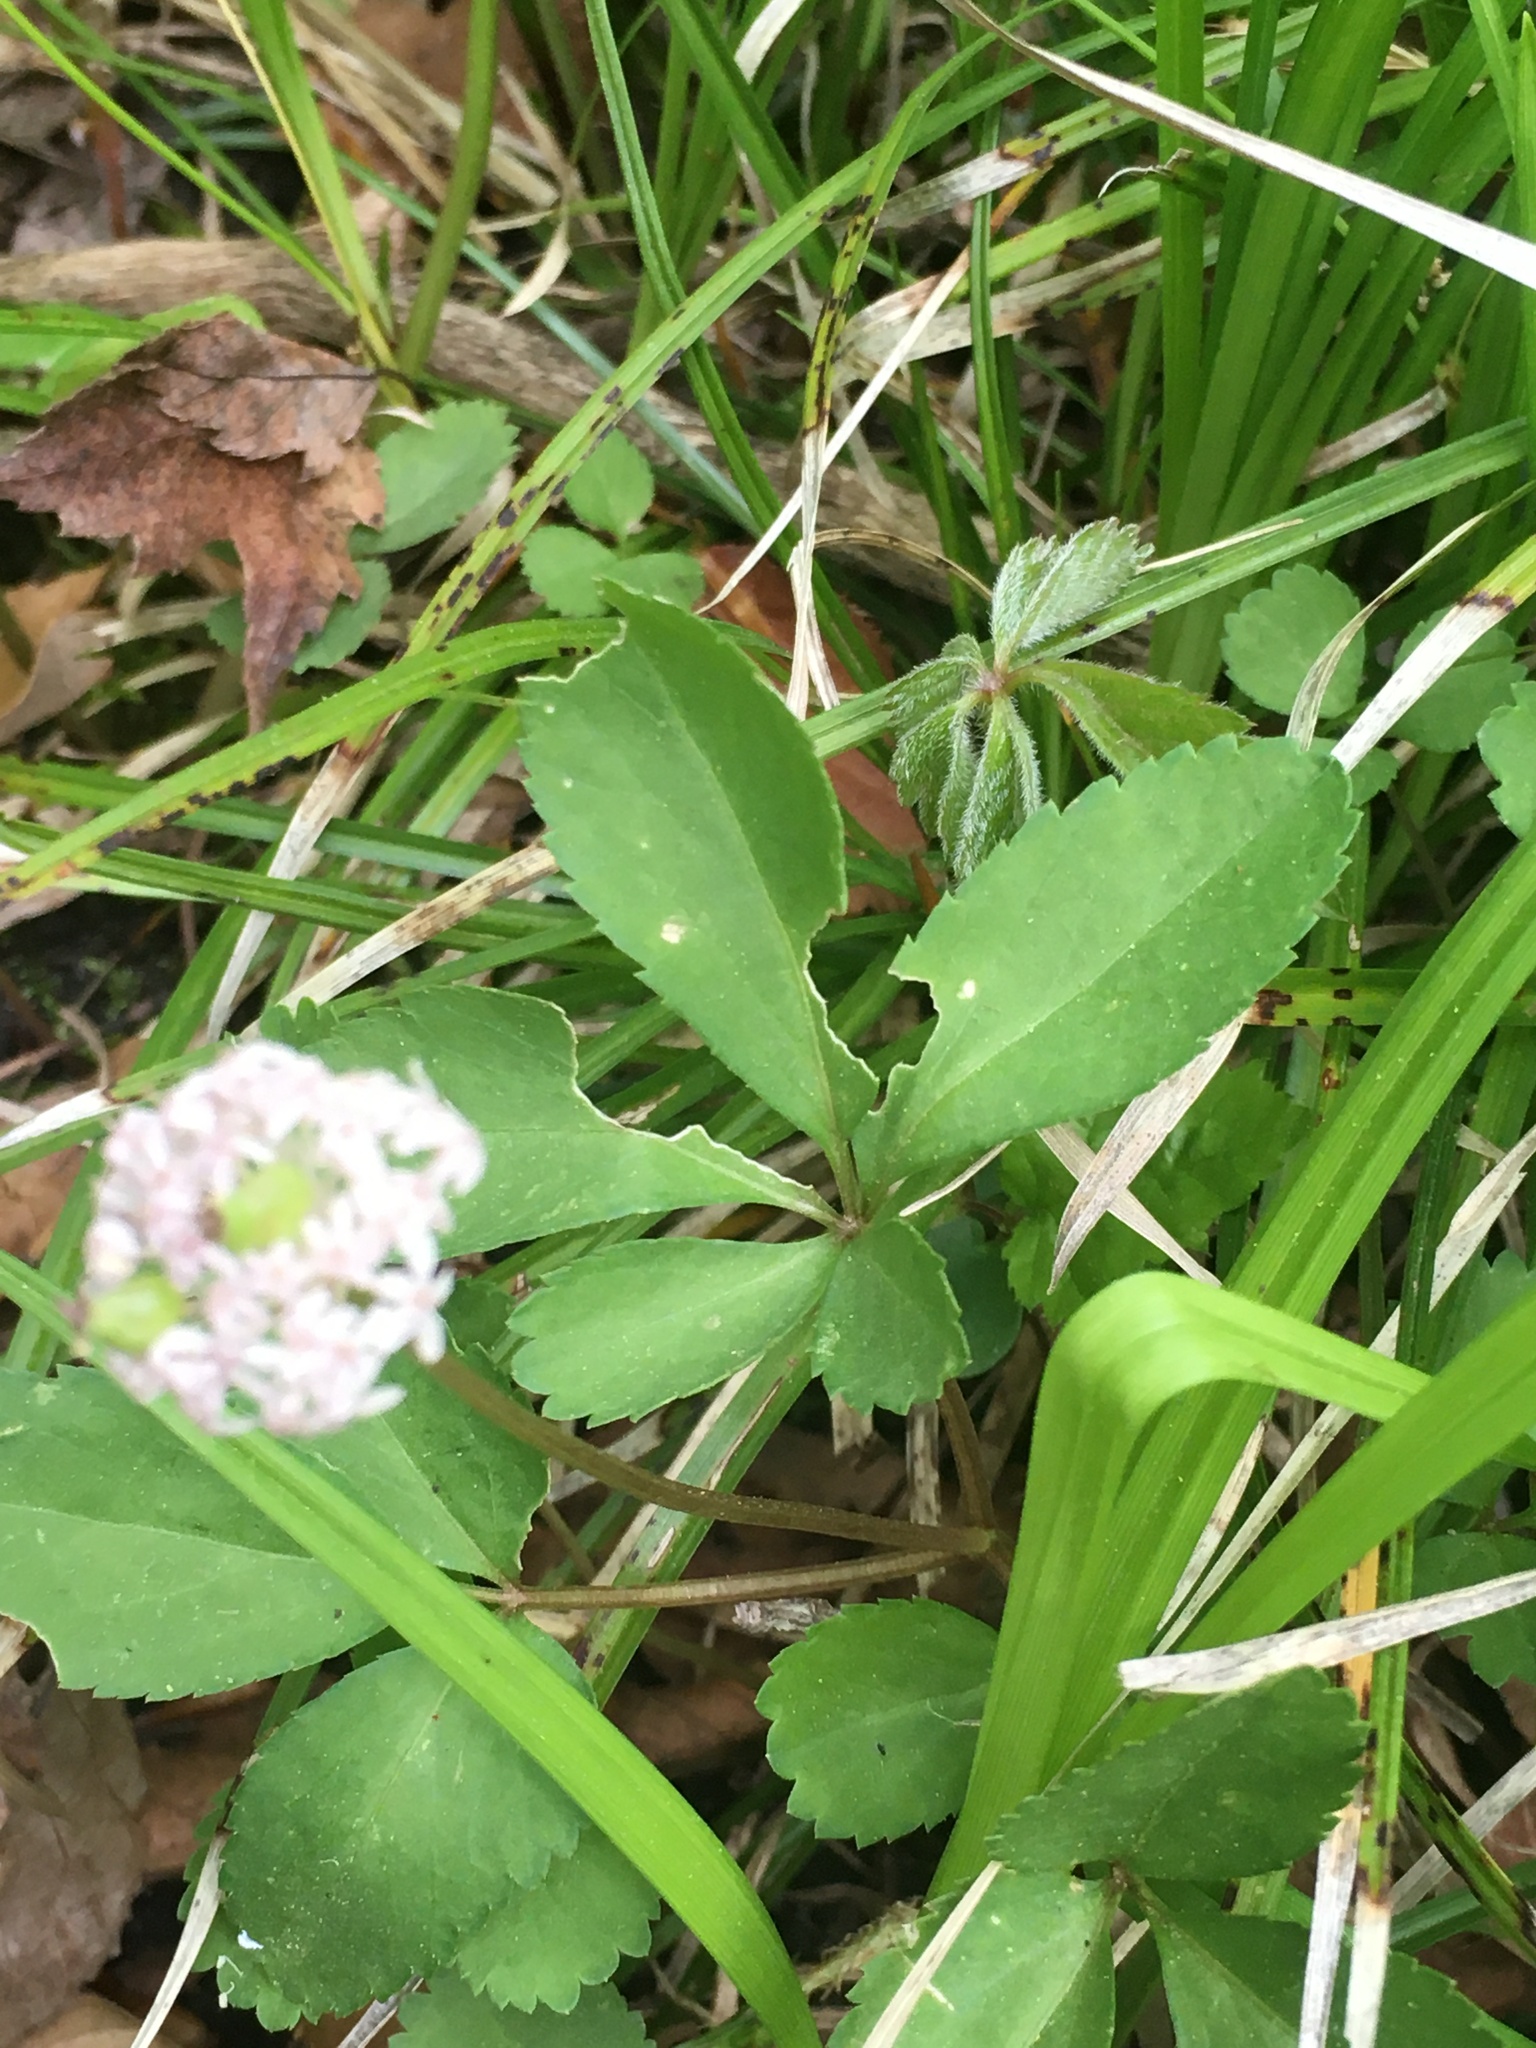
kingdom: Plantae
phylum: Tracheophyta
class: Magnoliopsida
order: Apiales
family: Araliaceae
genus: Panax
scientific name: Panax trifolius
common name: Dwarf ginseng
